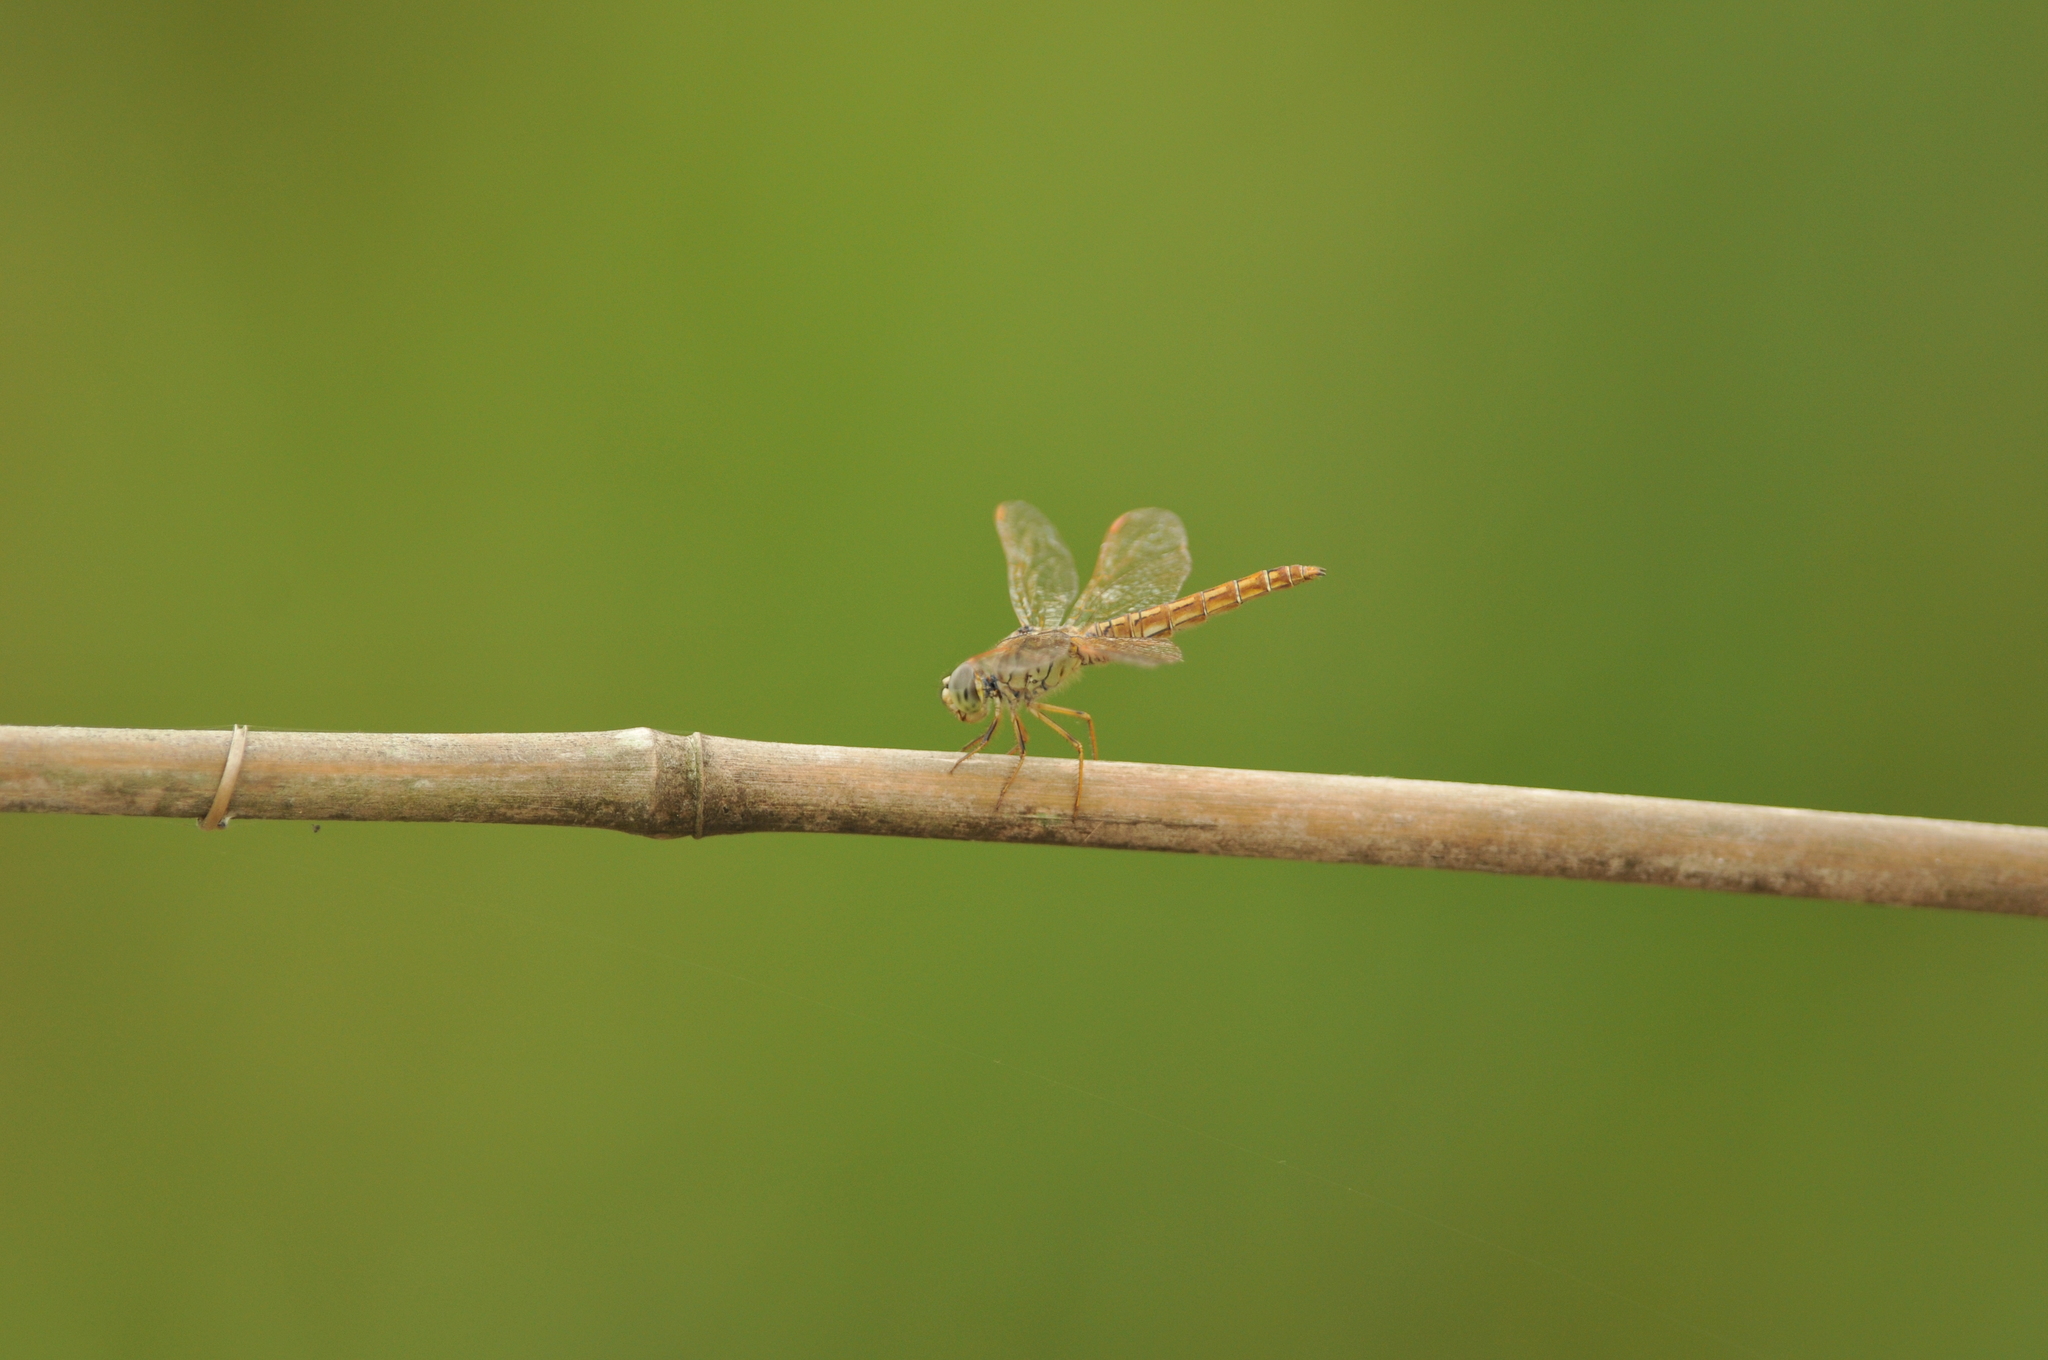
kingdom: Animalia
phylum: Arthropoda
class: Insecta
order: Odonata
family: Libellulidae
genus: Brachythemis
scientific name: Brachythemis contaminata
